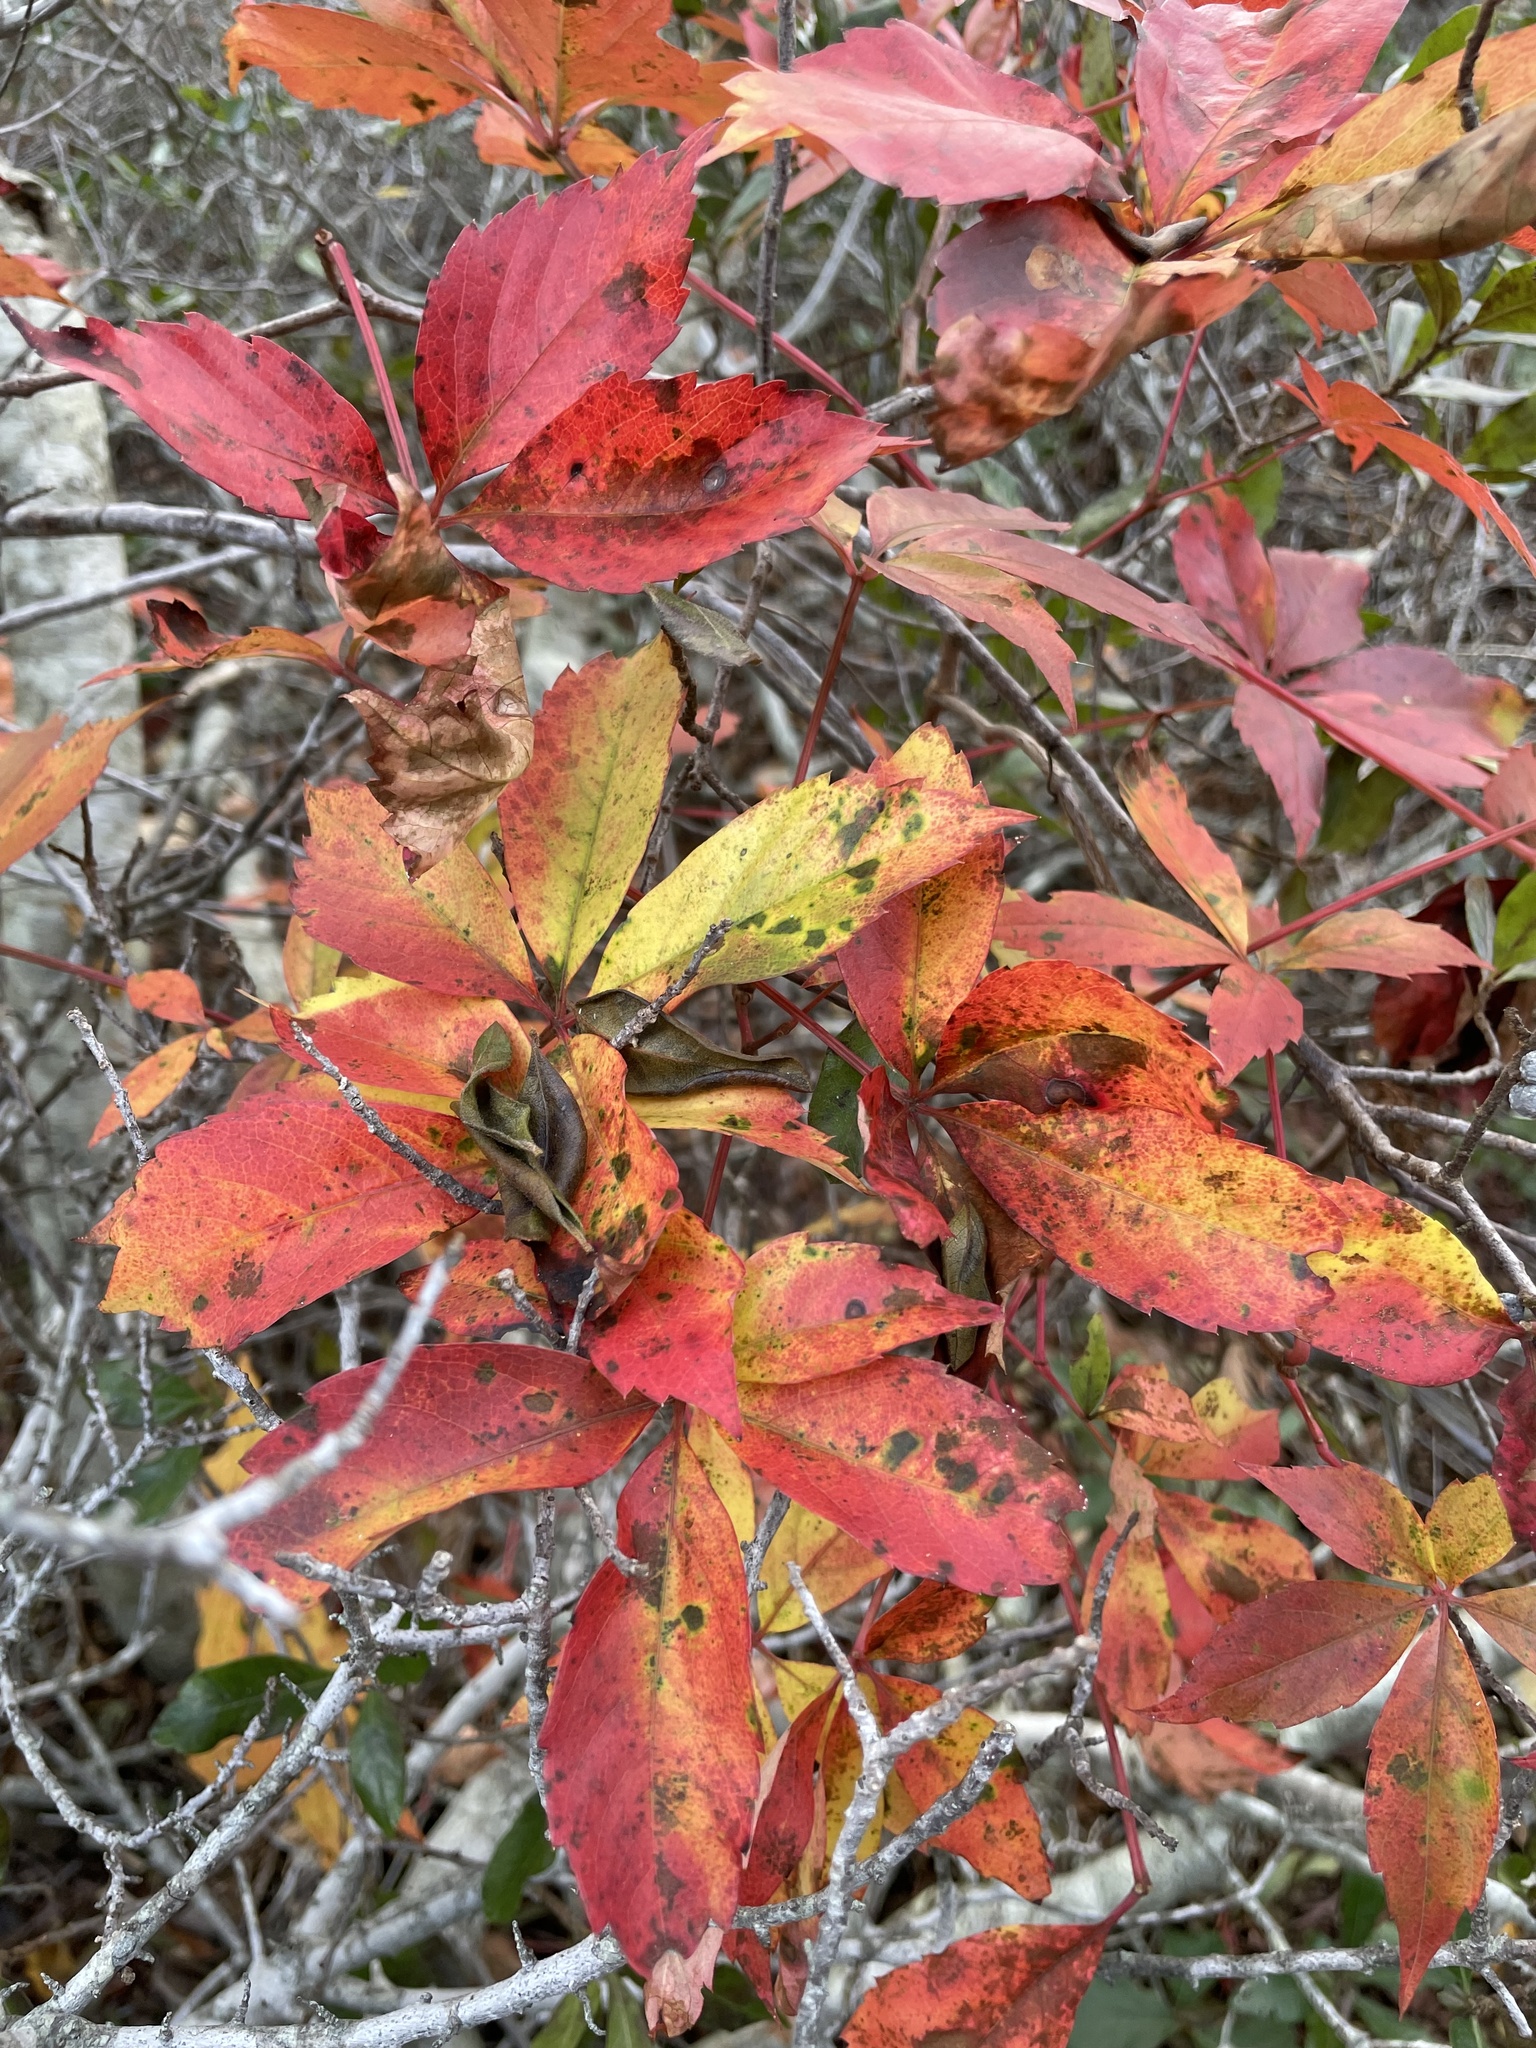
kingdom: Plantae
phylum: Tracheophyta
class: Magnoliopsida
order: Vitales
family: Vitaceae
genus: Parthenocissus
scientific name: Parthenocissus quinquefolia
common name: Virginia-creeper
